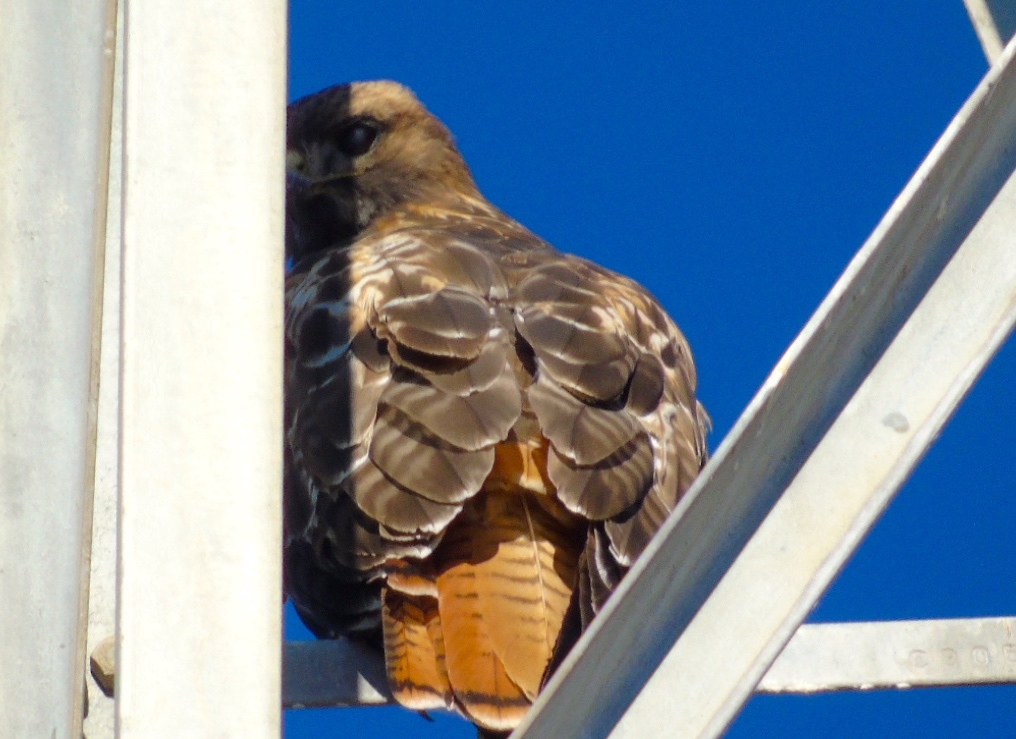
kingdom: Animalia
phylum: Chordata
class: Aves
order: Accipitriformes
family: Accipitridae
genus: Buteo
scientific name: Buteo jamaicensis
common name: Red-tailed hawk
